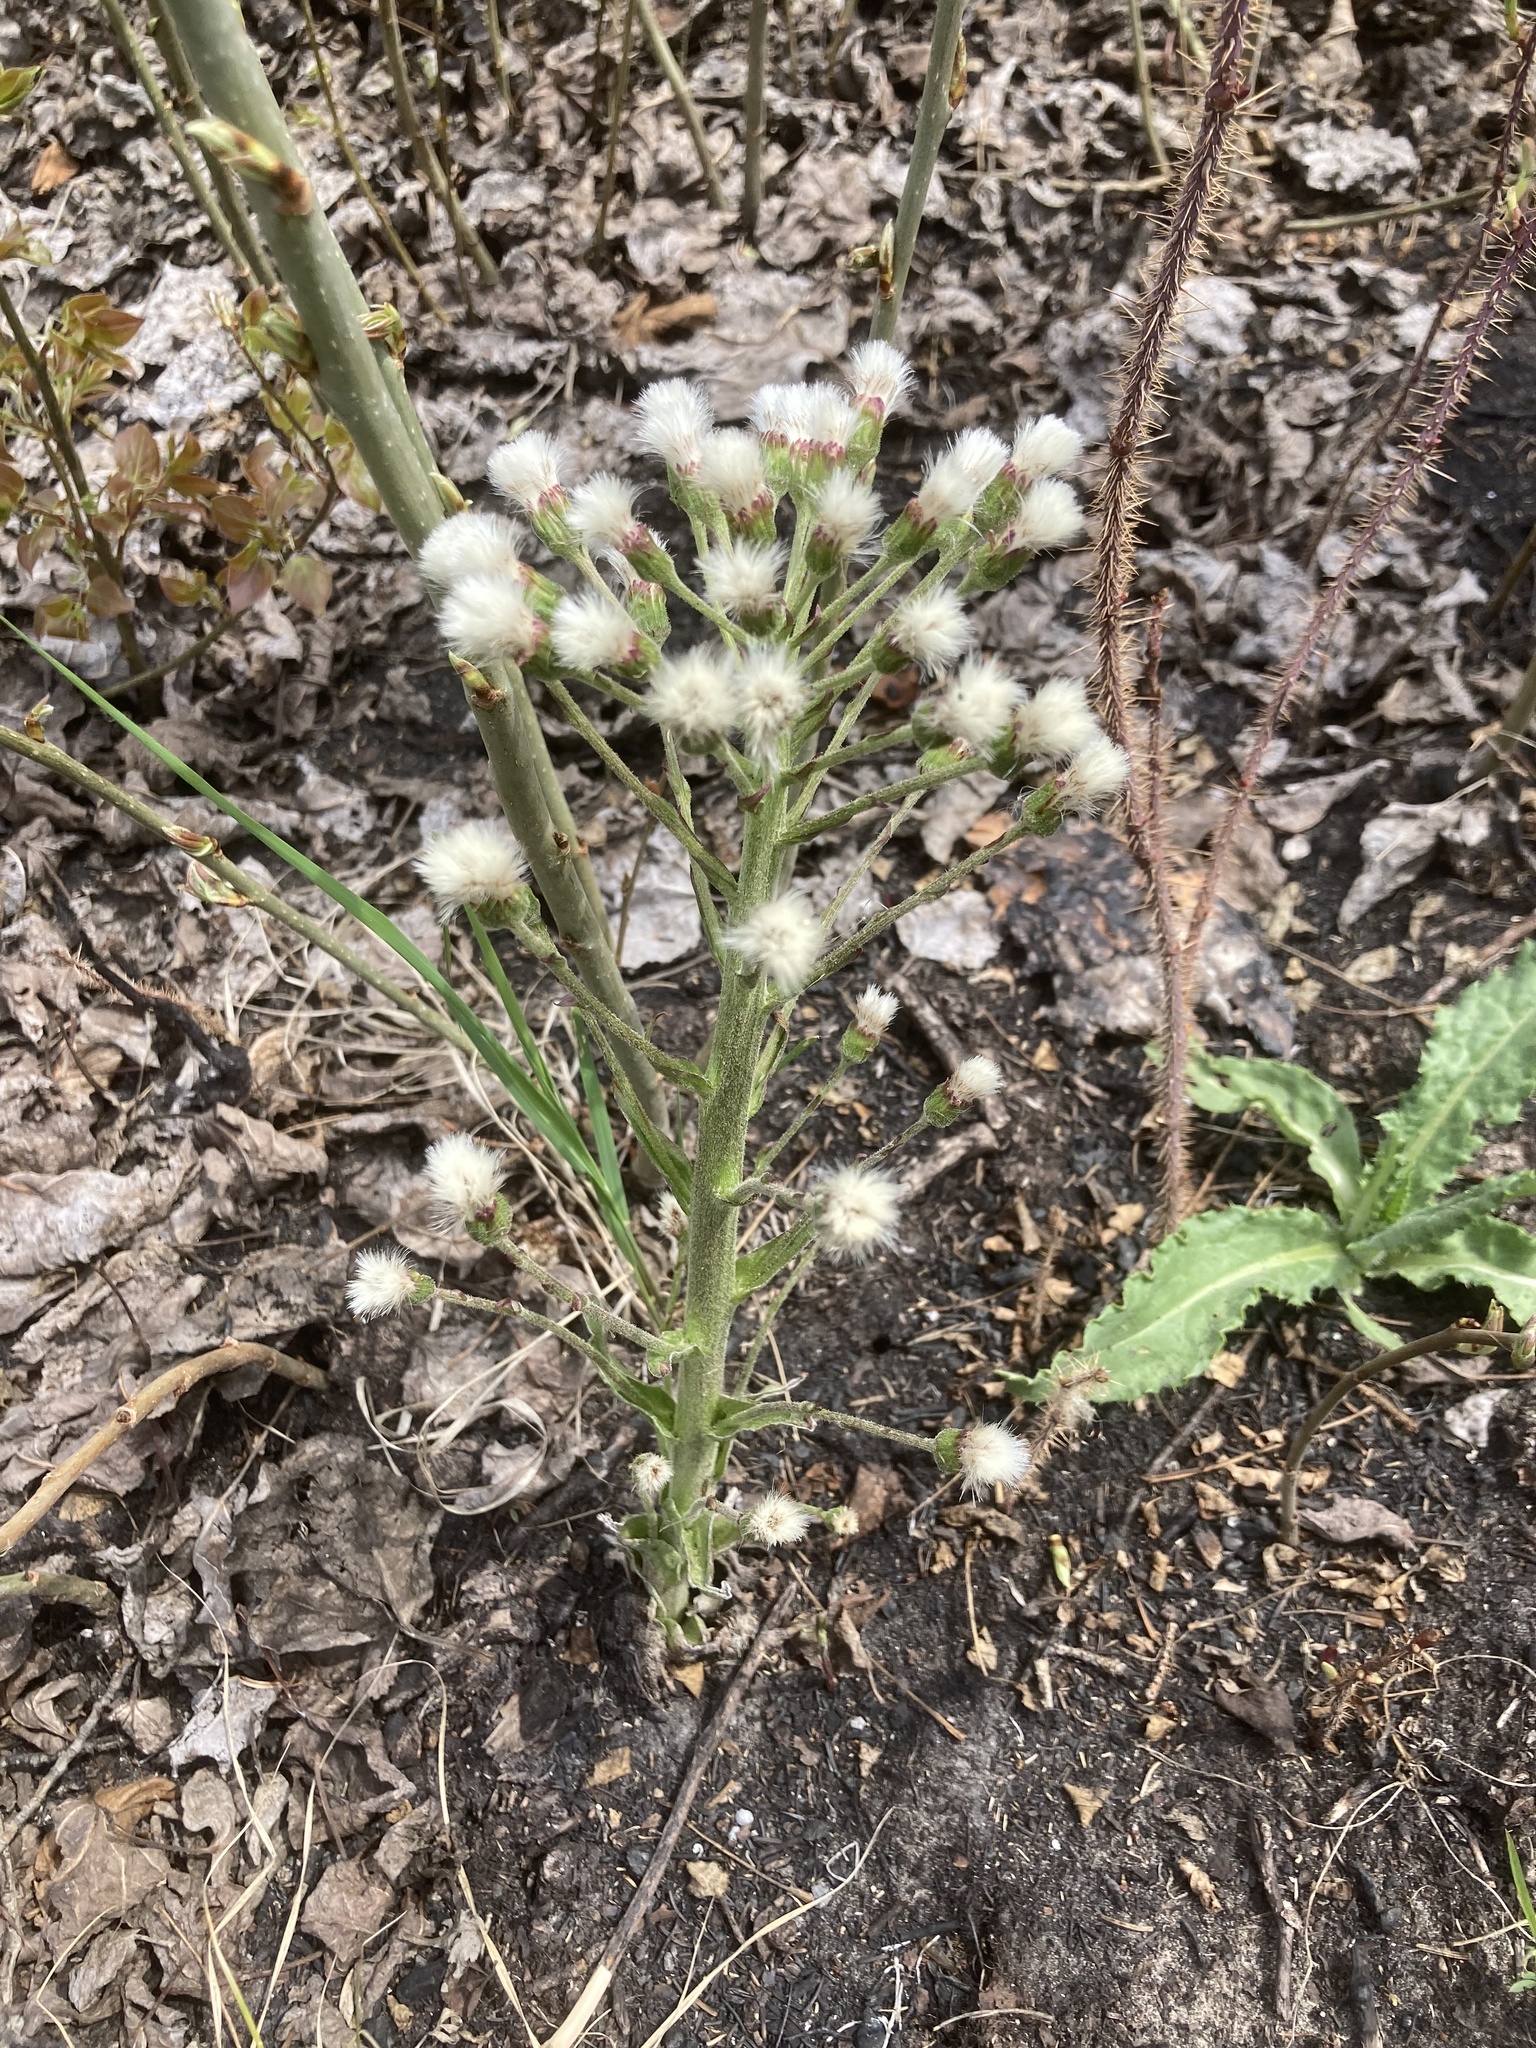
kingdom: Plantae
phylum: Tracheophyta
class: Magnoliopsida
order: Asterales
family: Asteraceae
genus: Petasites
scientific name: Petasites frigidus
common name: Arctic butterbur
